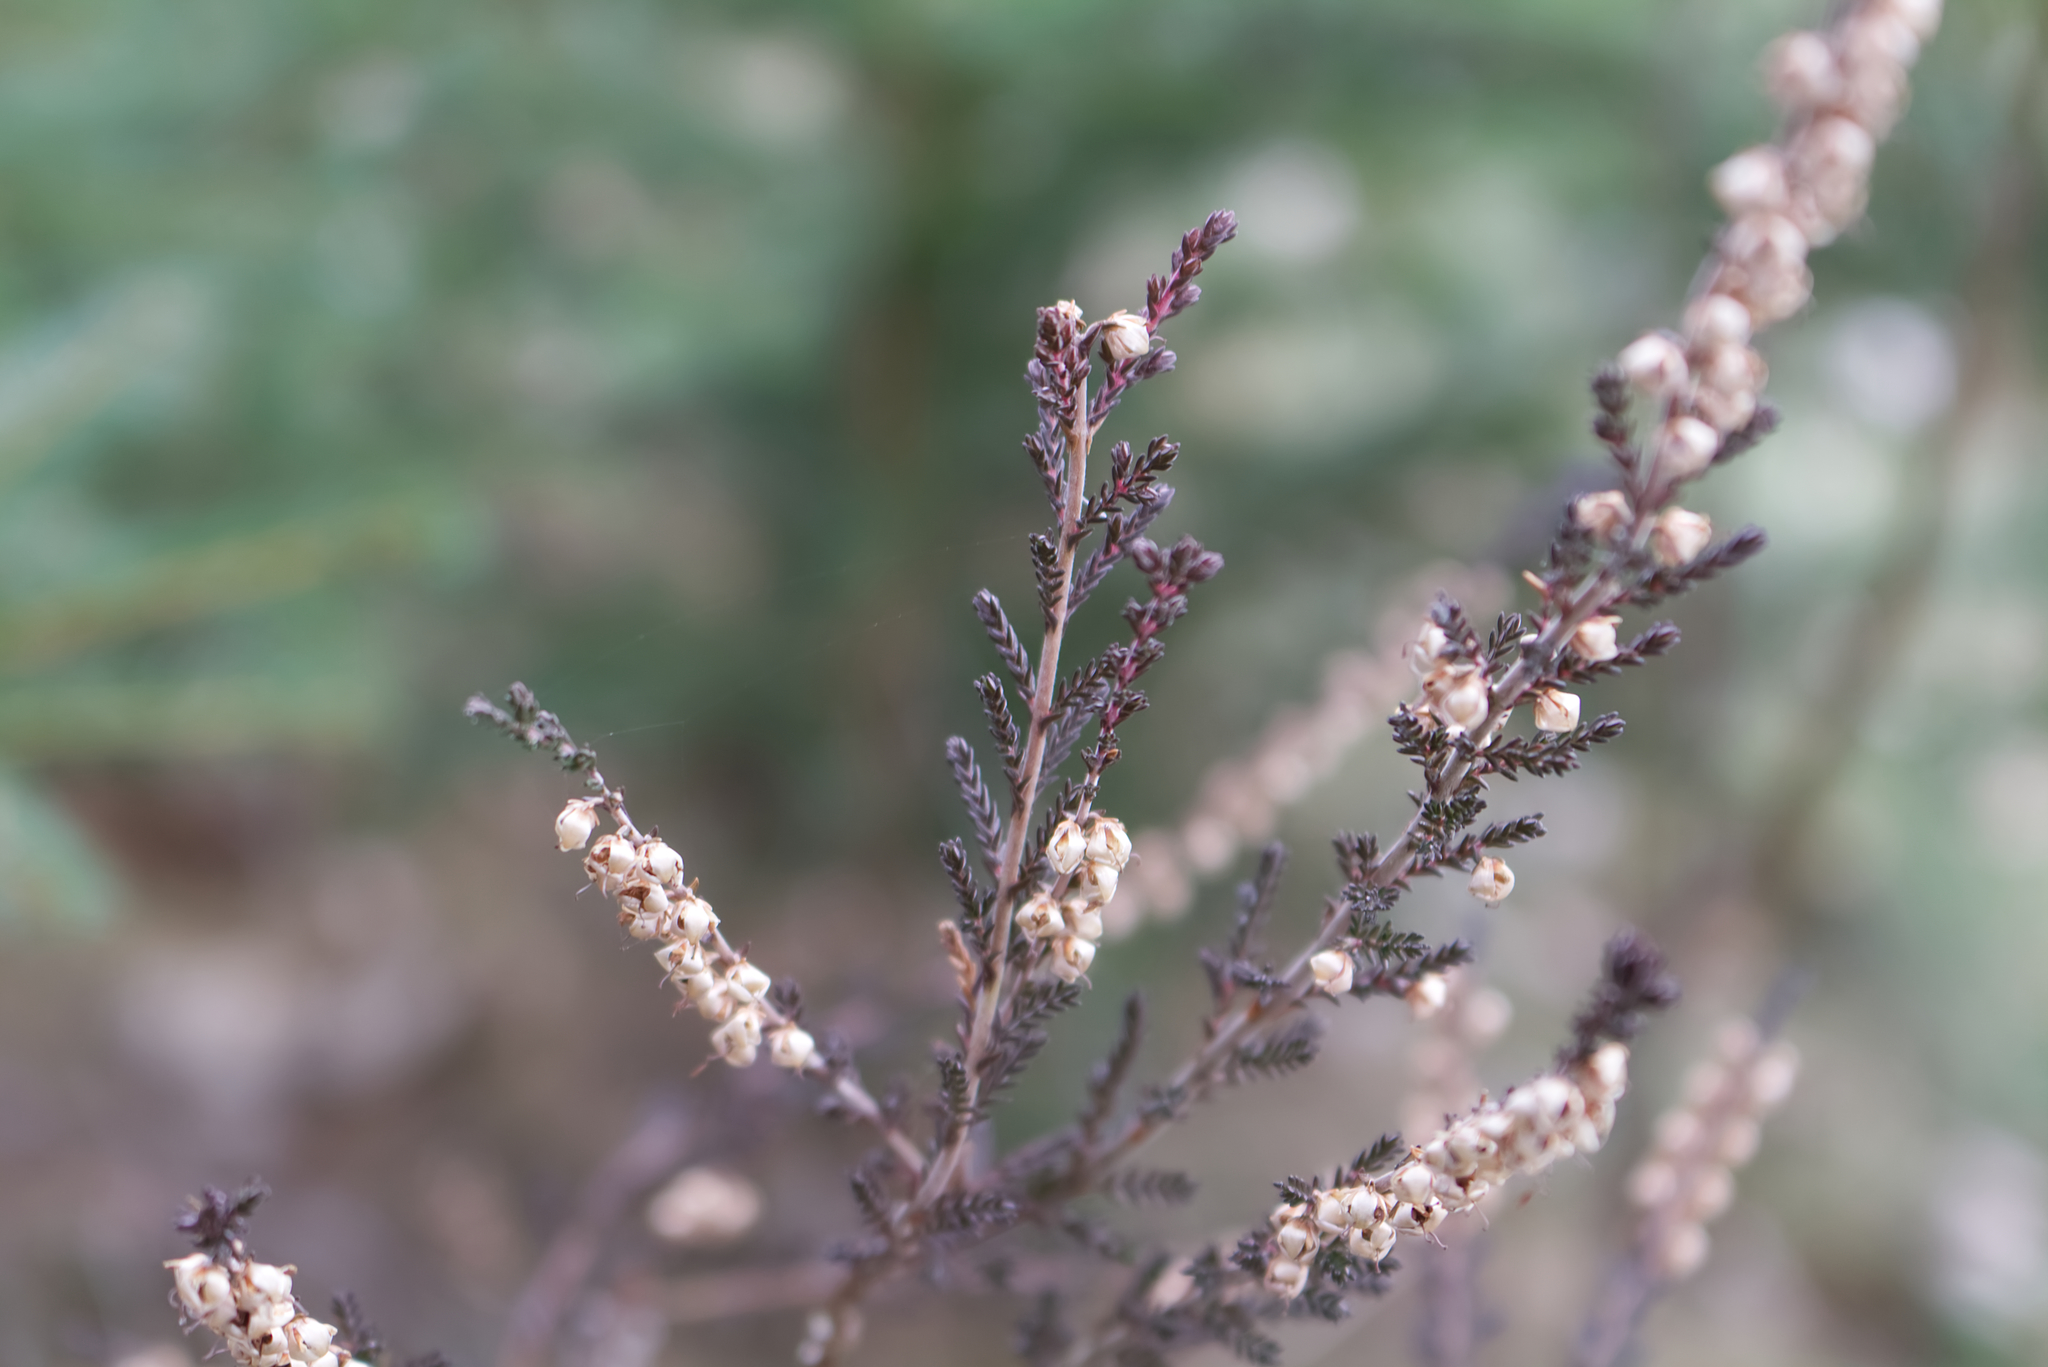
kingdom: Plantae
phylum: Tracheophyta
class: Magnoliopsida
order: Ericales
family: Ericaceae
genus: Calluna
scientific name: Calluna vulgaris
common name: Heather
